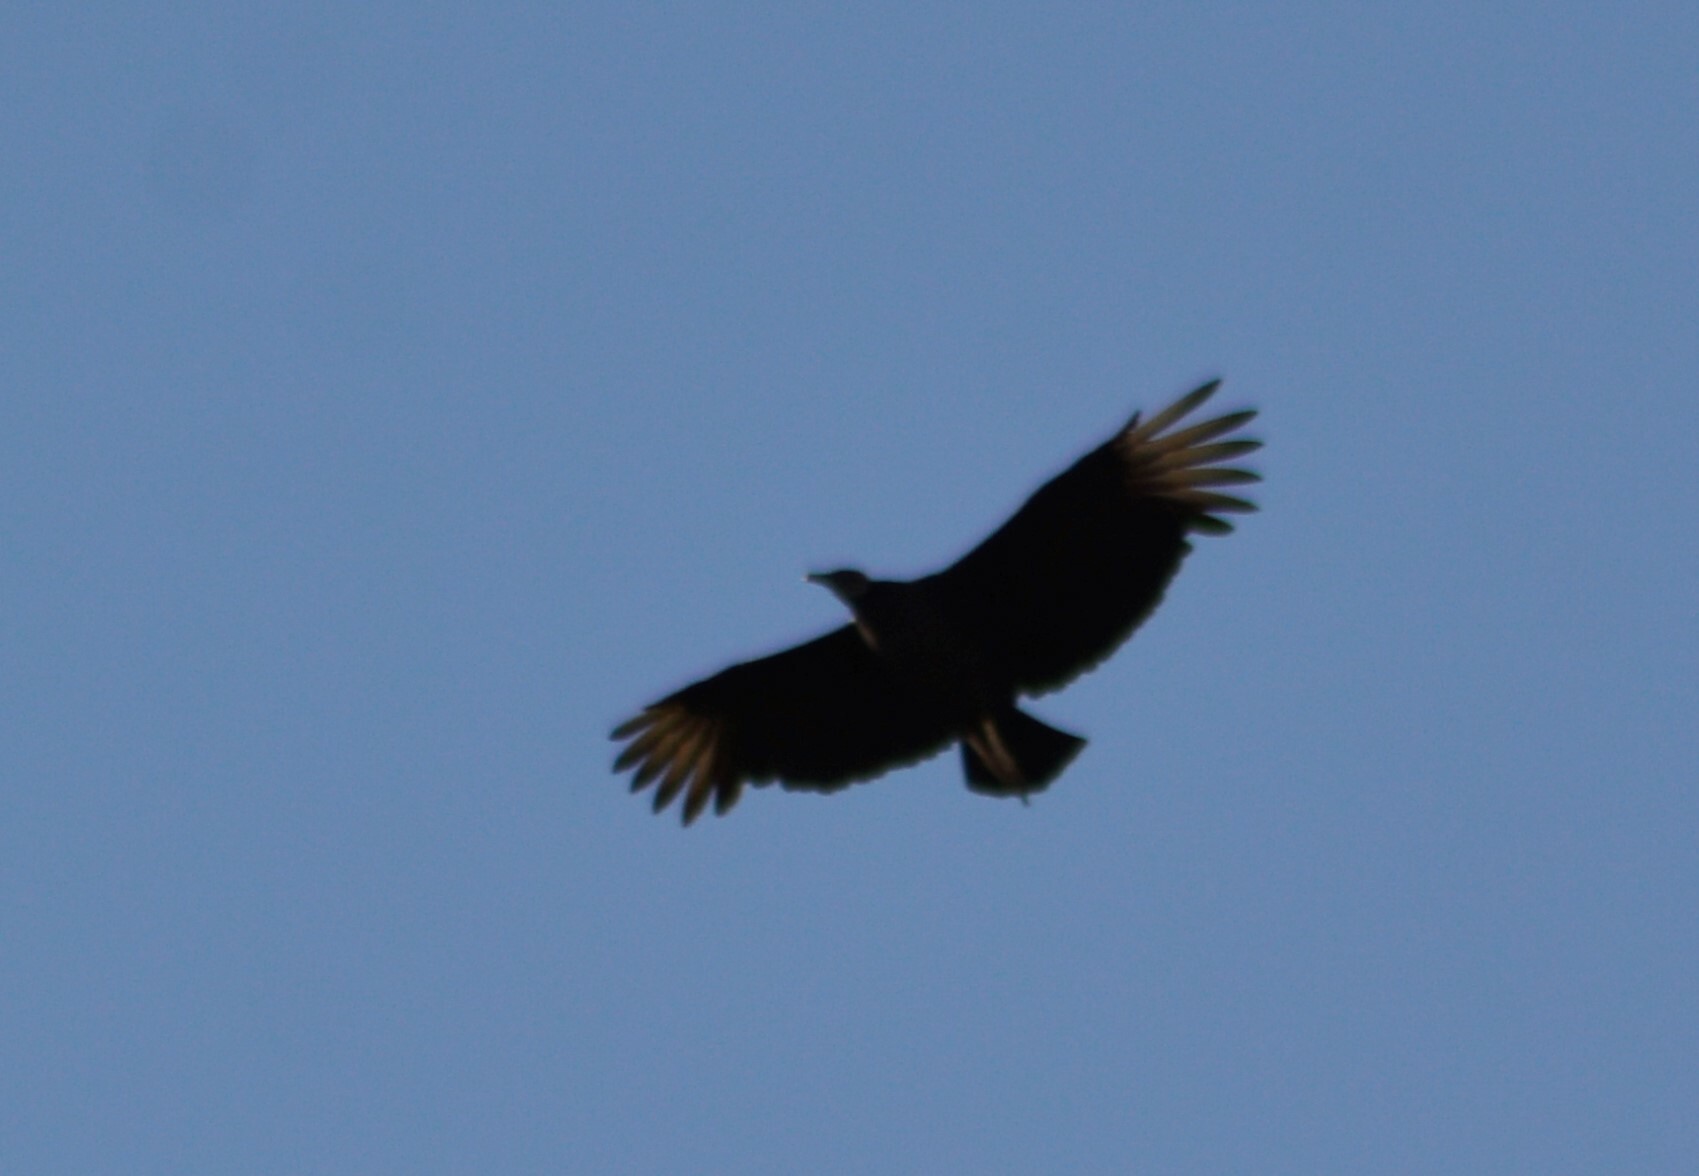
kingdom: Animalia
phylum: Chordata
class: Aves
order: Accipitriformes
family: Cathartidae
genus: Coragyps
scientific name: Coragyps atratus
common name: Black vulture
